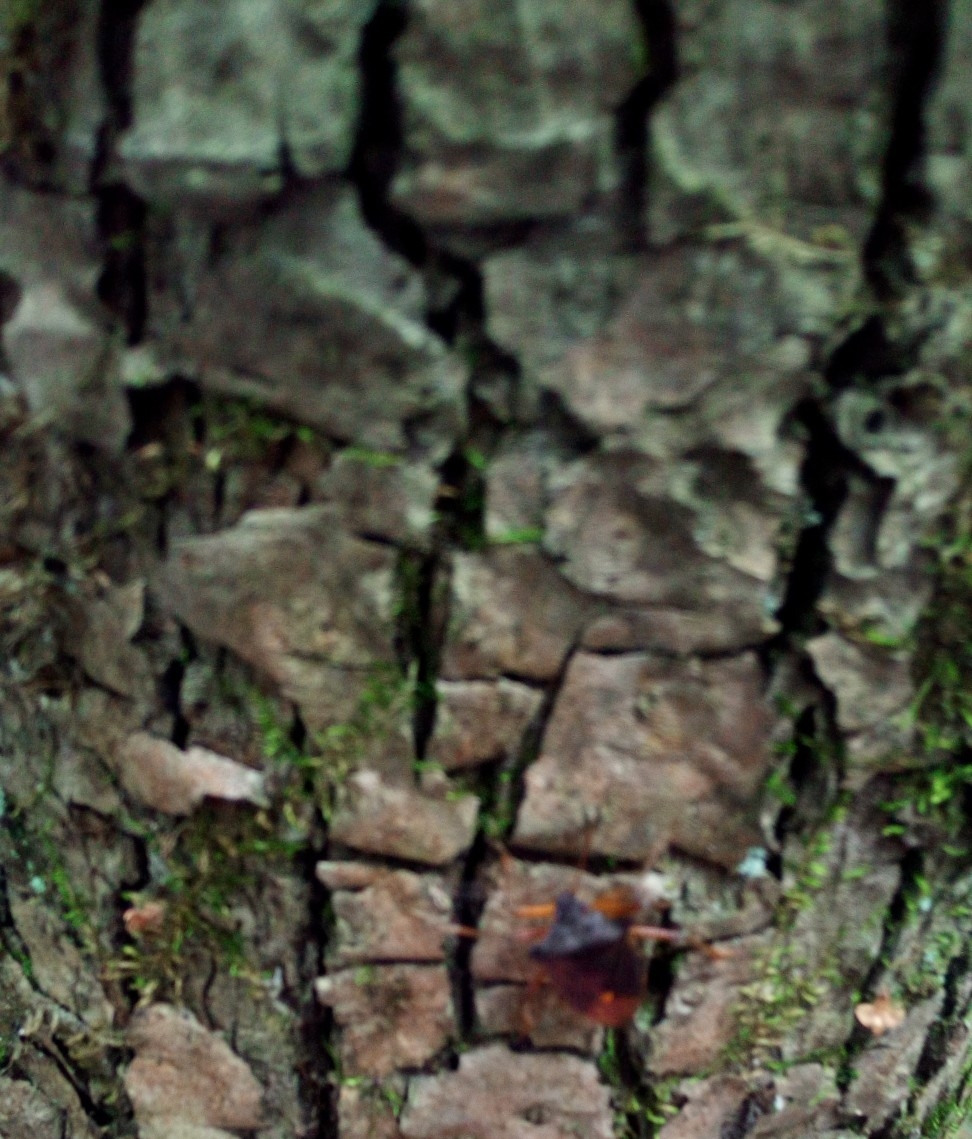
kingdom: Animalia
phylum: Arthropoda
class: Insecta
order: Hemiptera
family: Pentatomidae
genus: Pentatoma
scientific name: Pentatoma rufipes
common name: Forest bug
